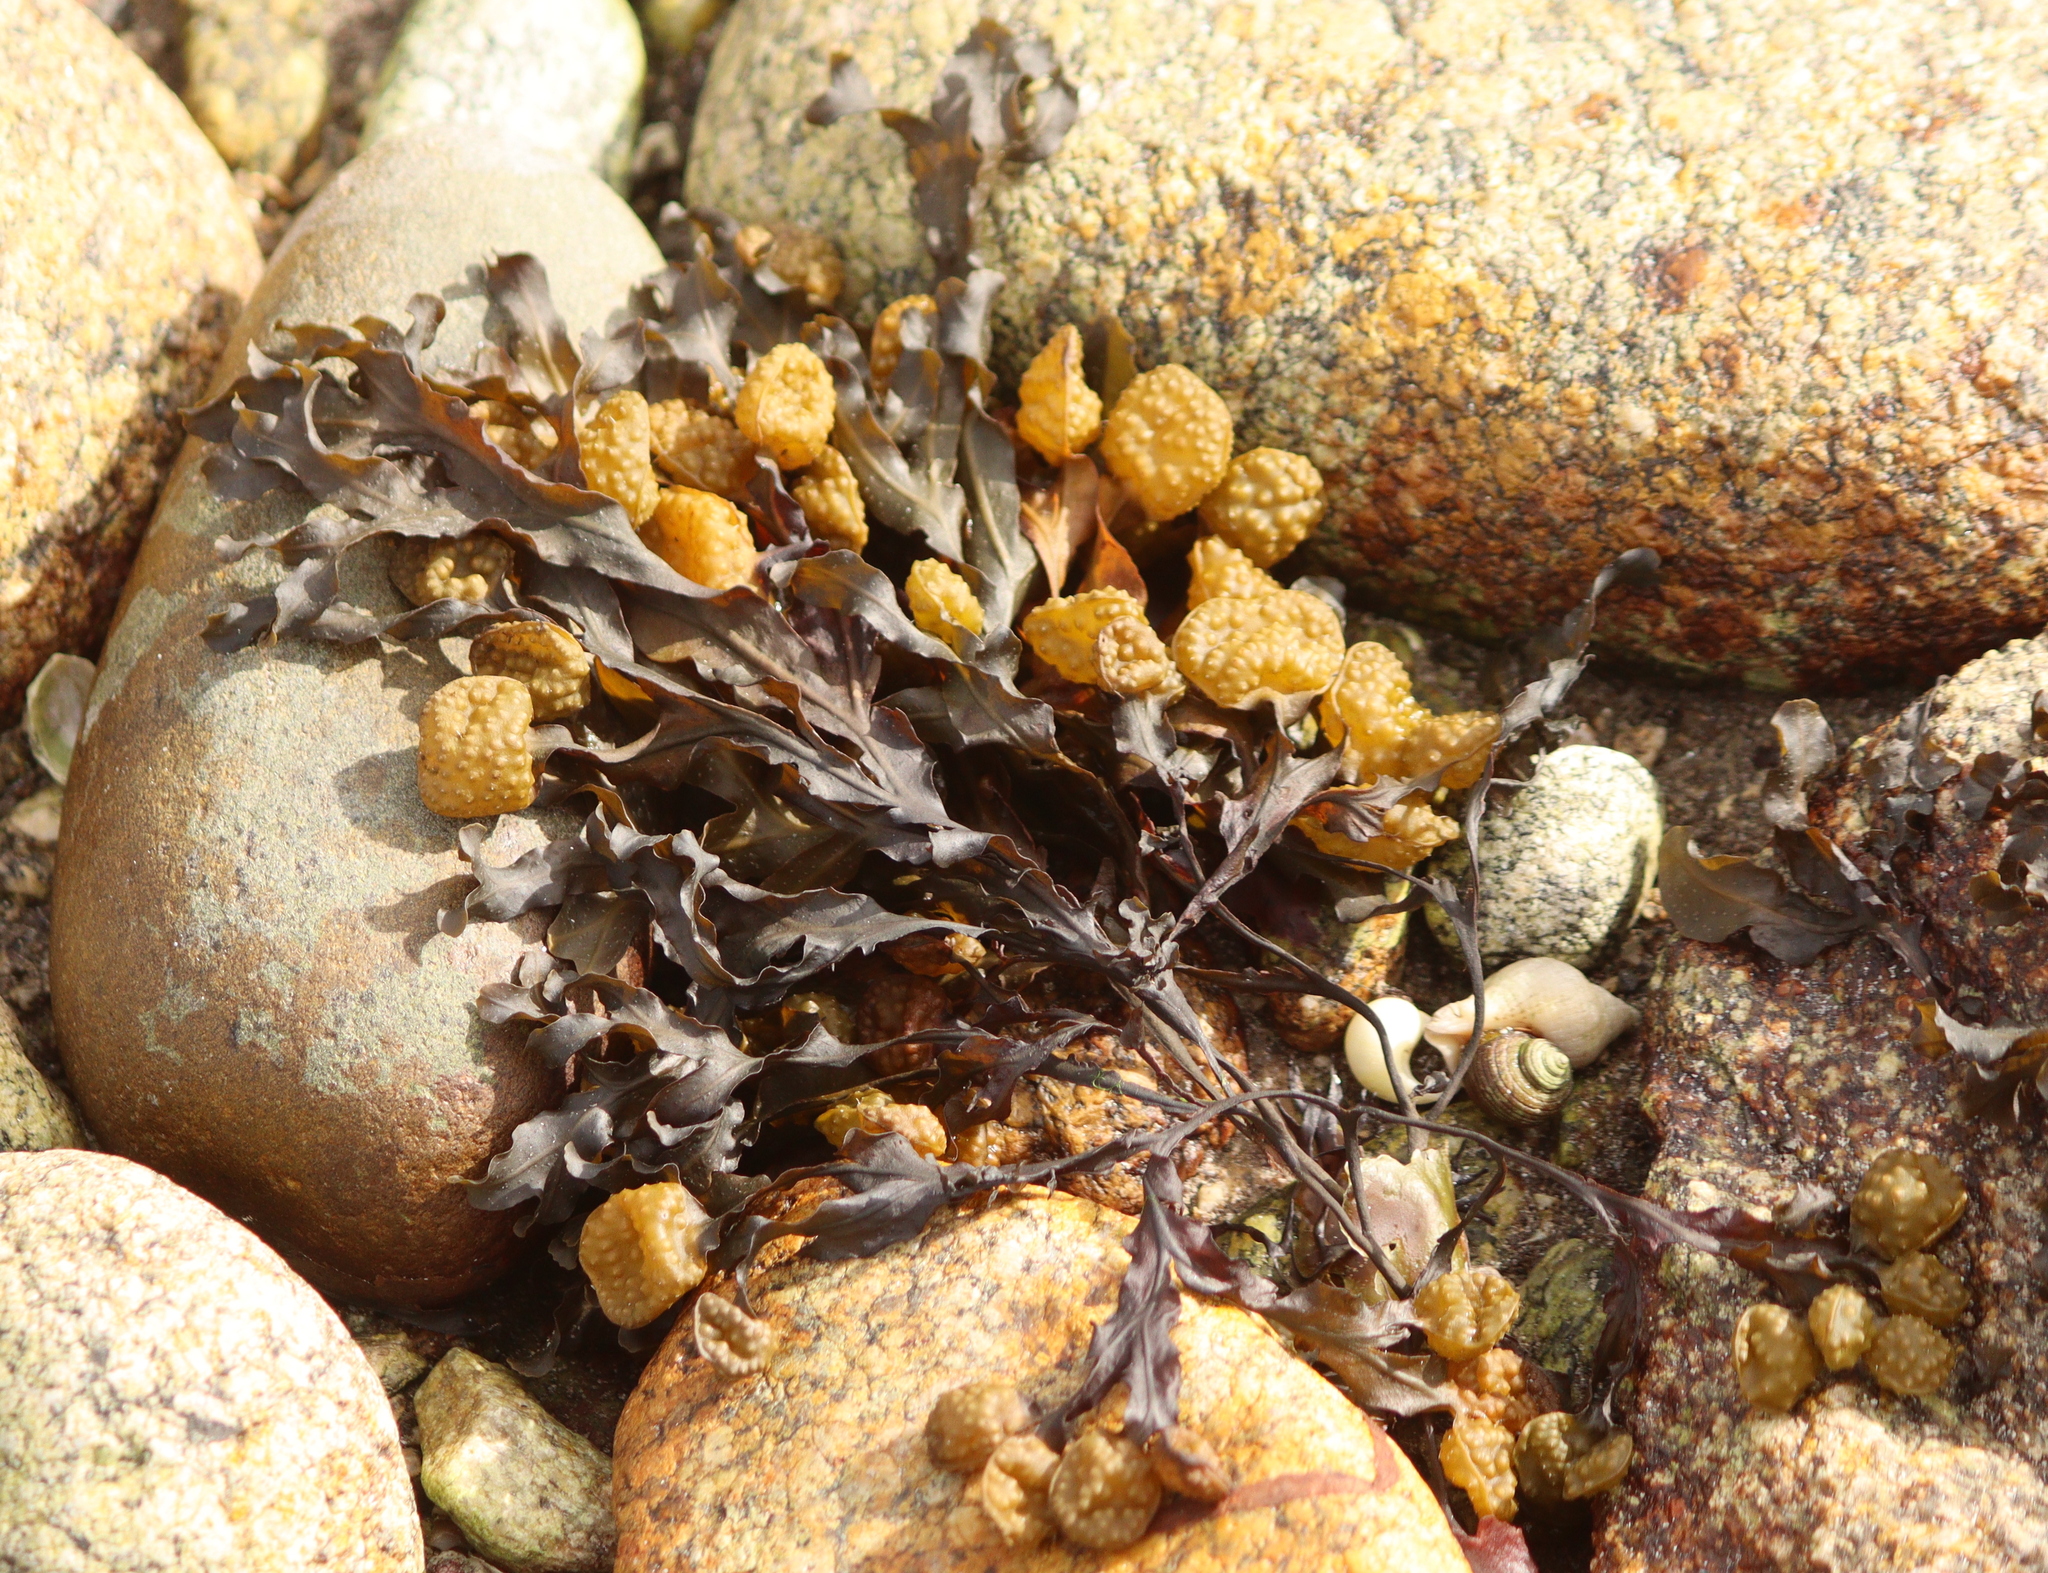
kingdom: Chromista
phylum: Ochrophyta
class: Phaeophyceae
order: Fucales
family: Fucaceae
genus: Fucus
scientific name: Fucus spiralis
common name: Spiral wrack
